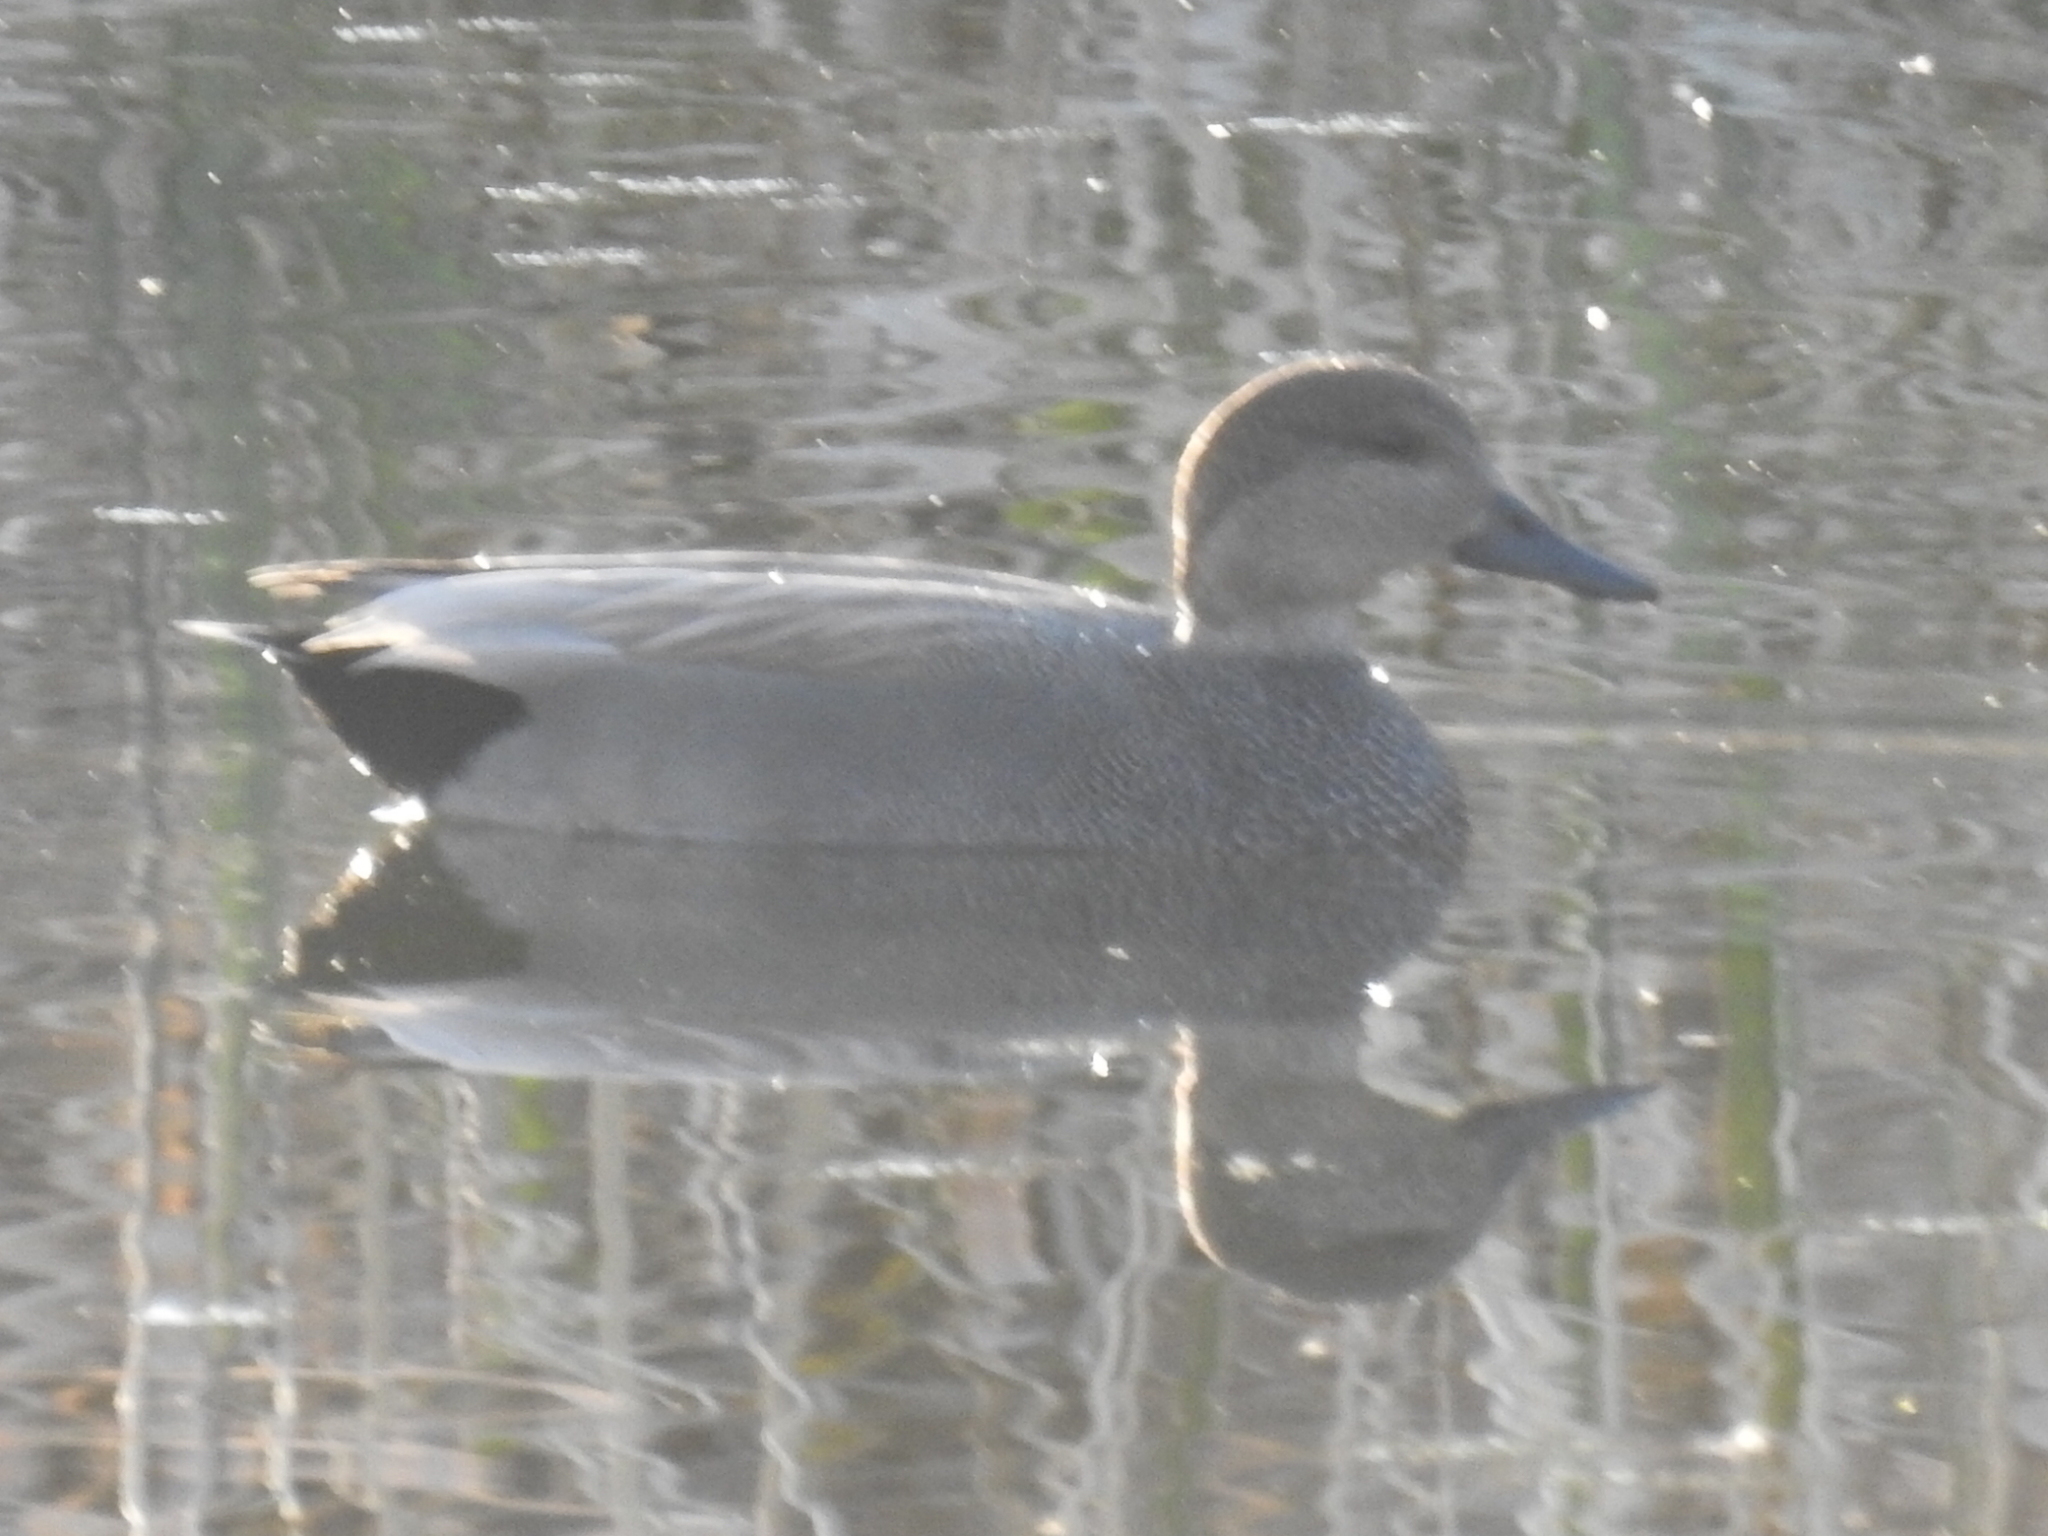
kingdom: Animalia
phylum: Chordata
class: Aves
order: Anseriformes
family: Anatidae
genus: Mareca
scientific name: Mareca strepera
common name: Gadwall
